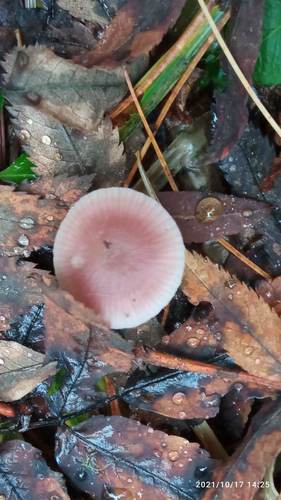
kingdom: Fungi
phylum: Basidiomycota
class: Agaricomycetes
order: Agaricales
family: Mycenaceae
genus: Mycena
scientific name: Mycena pura
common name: Lilac bonnet
